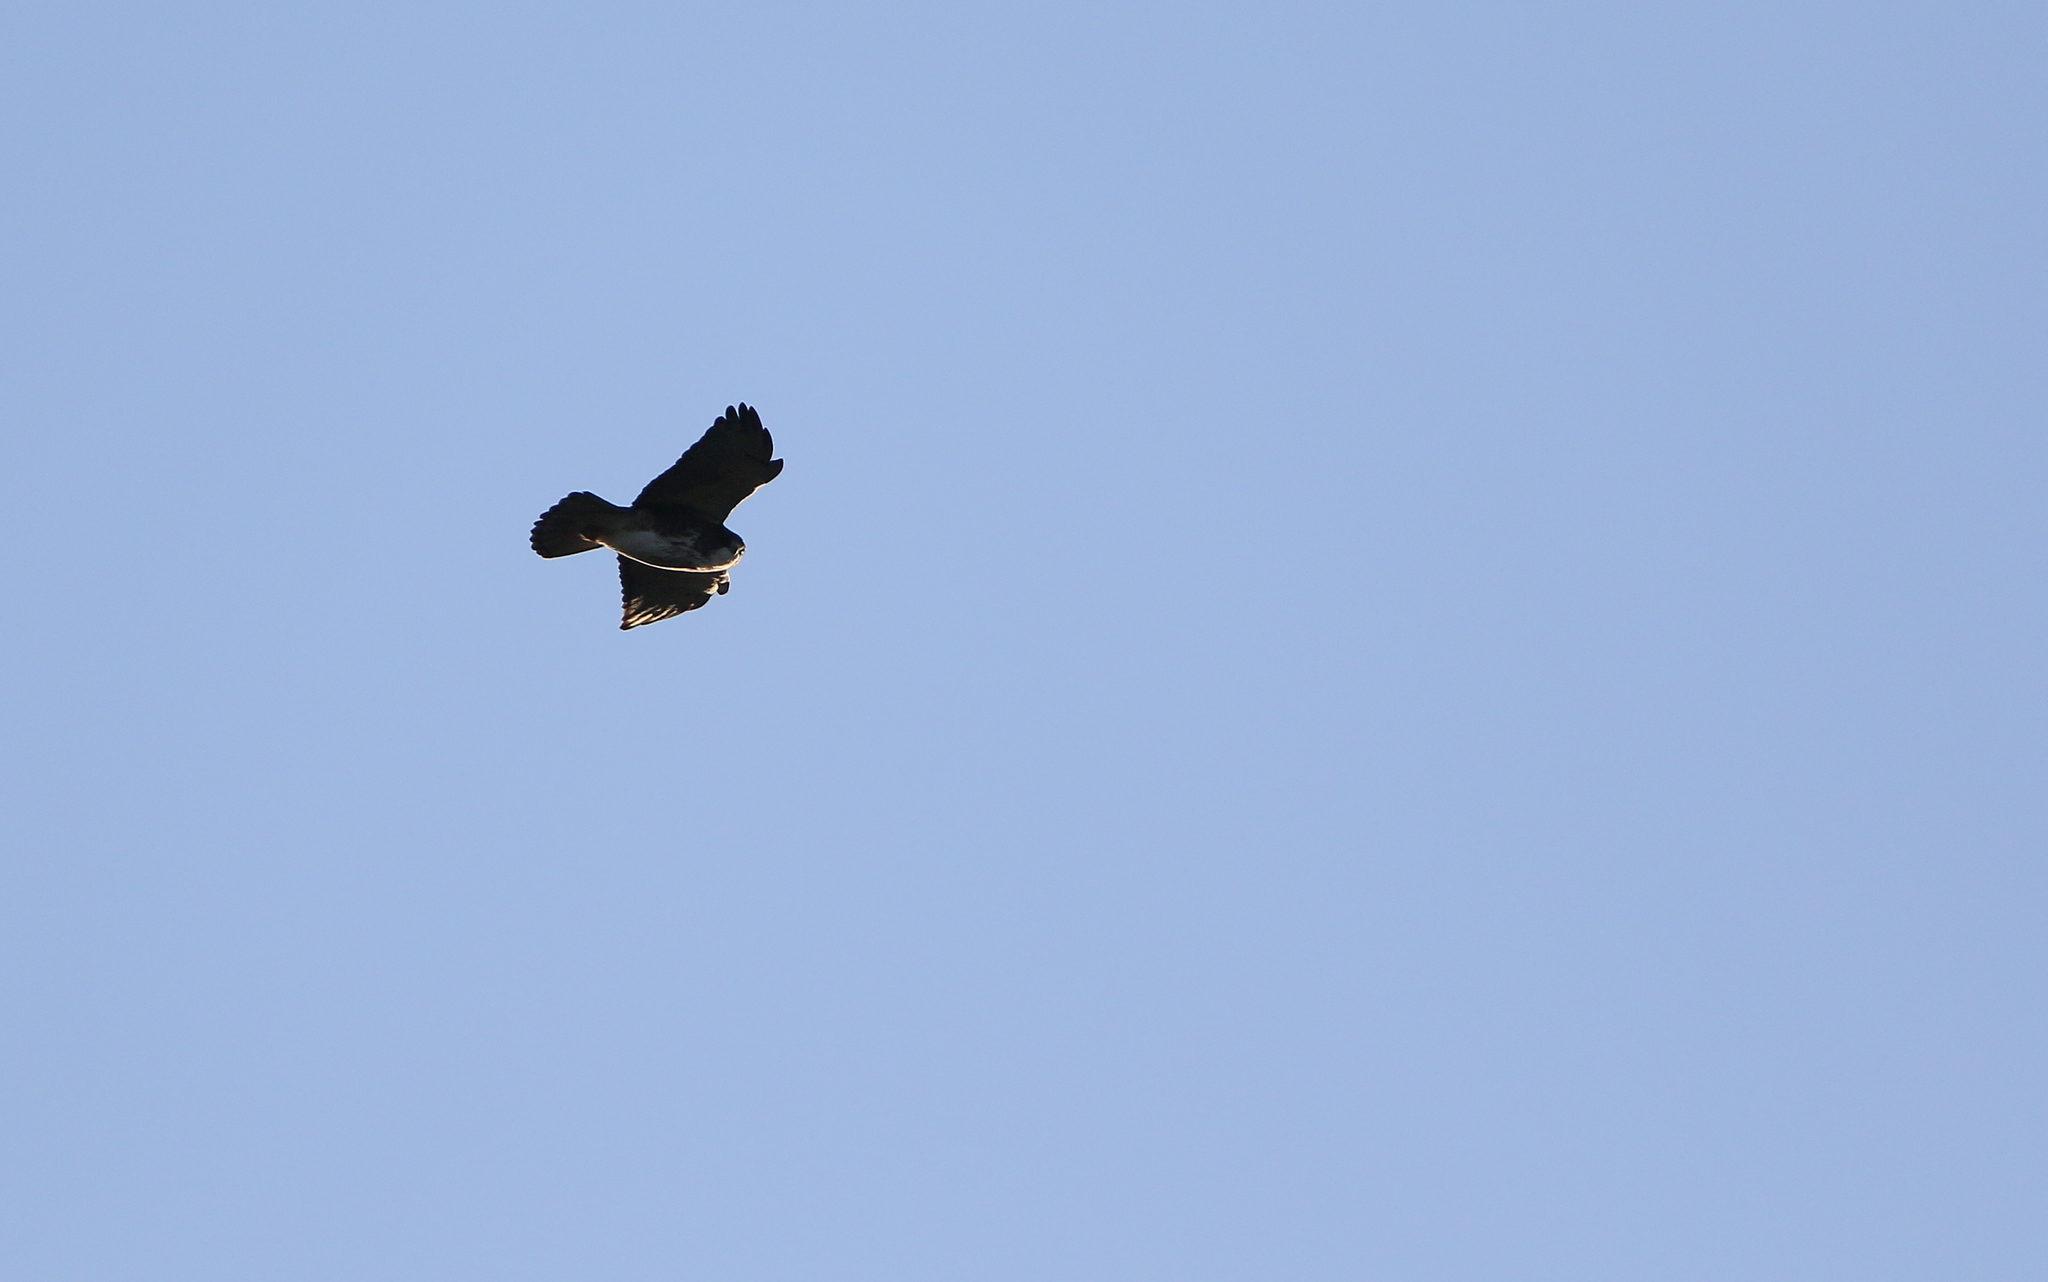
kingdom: Animalia
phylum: Chordata
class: Aves
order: Accipitriformes
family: Accipitridae
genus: Buteo
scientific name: Buteo albigula
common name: White-throated hawk
